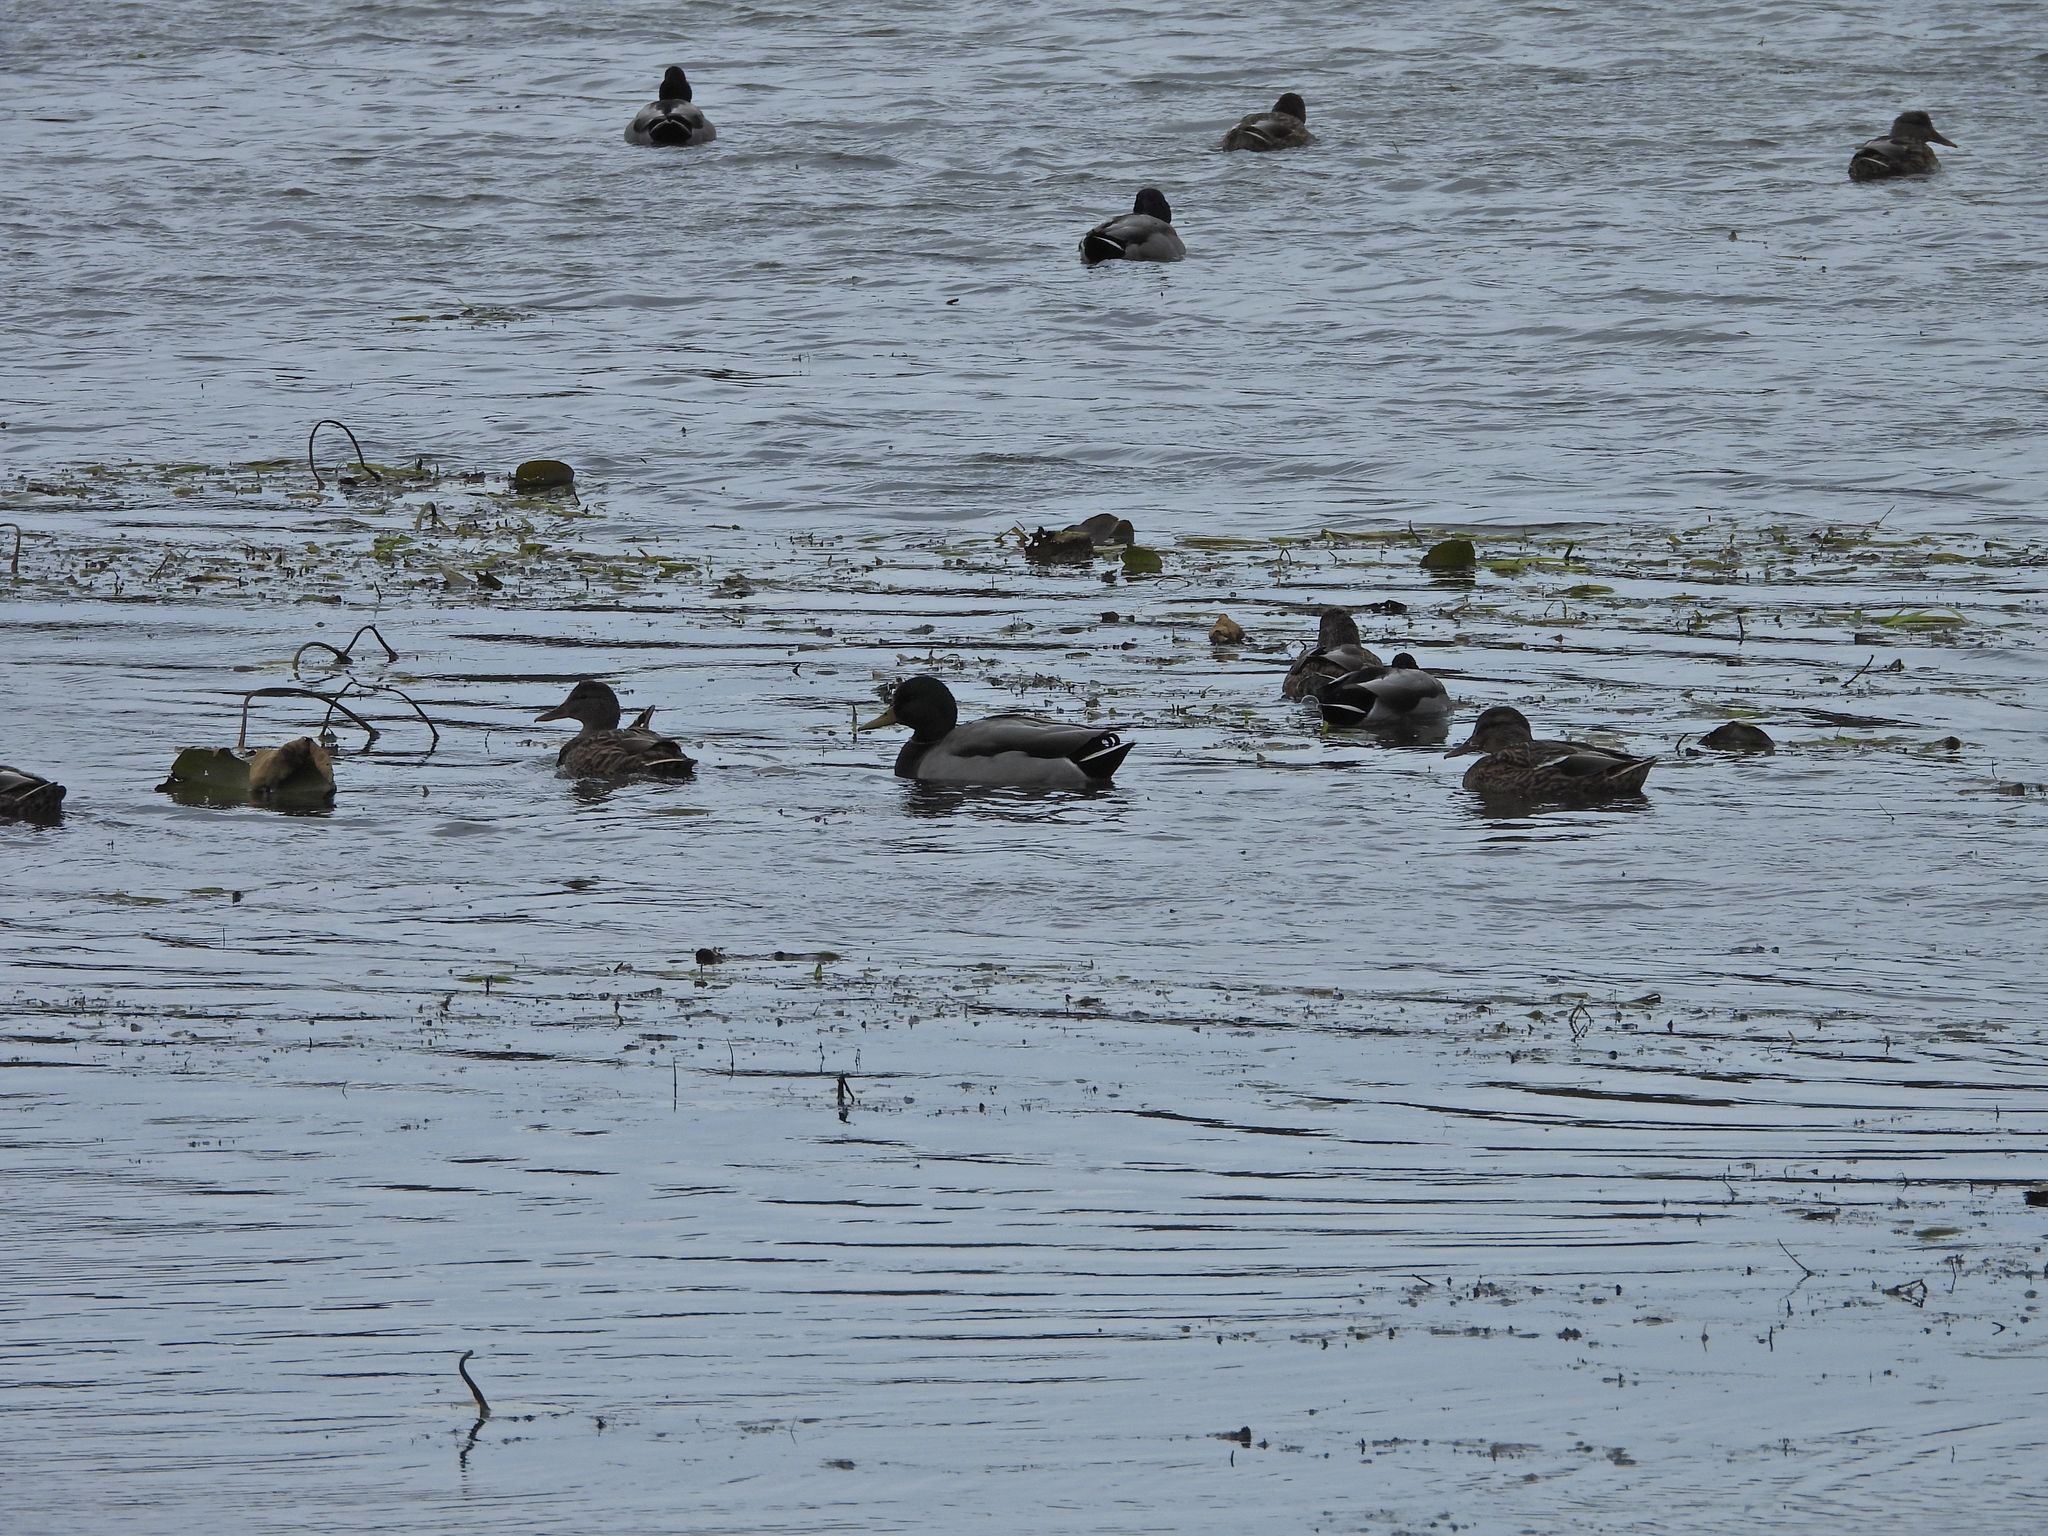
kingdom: Animalia
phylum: Chordata
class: Aves
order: Anseriformes
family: Anatidae
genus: Anas
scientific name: Anas platyrhynchos
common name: Mallard
